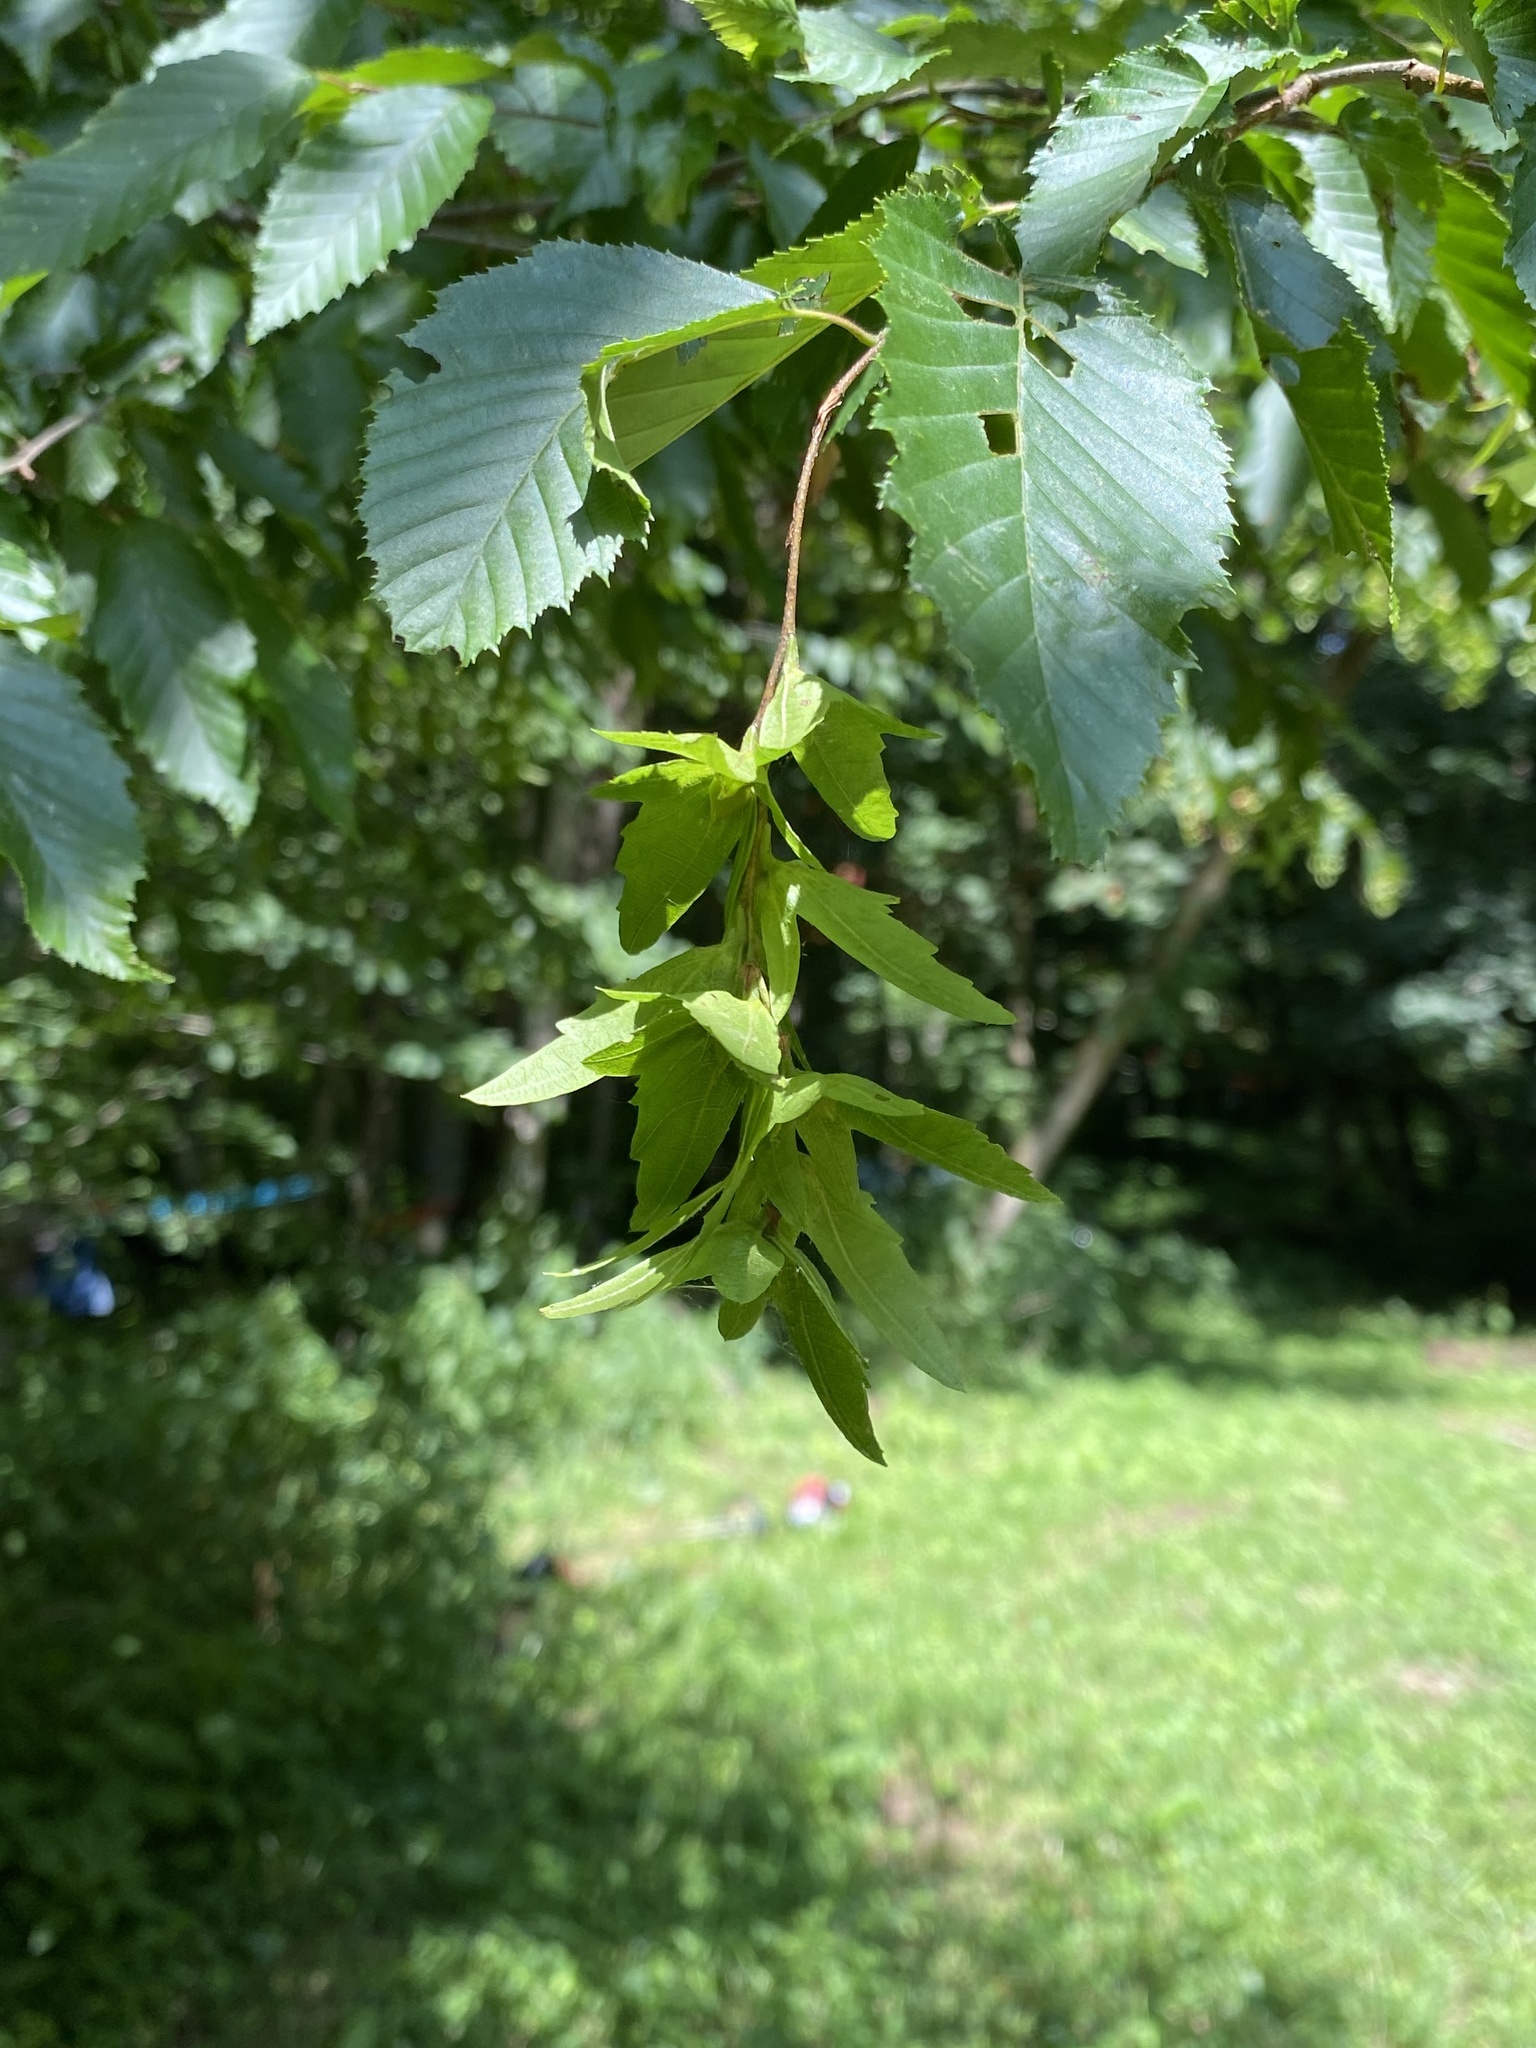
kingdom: Plantae
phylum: Tracheophyta
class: Magnoliopsida
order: Fagales
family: Betulaceae
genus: Carpinus
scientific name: Carpinus caroliniana
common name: American hornbeam
